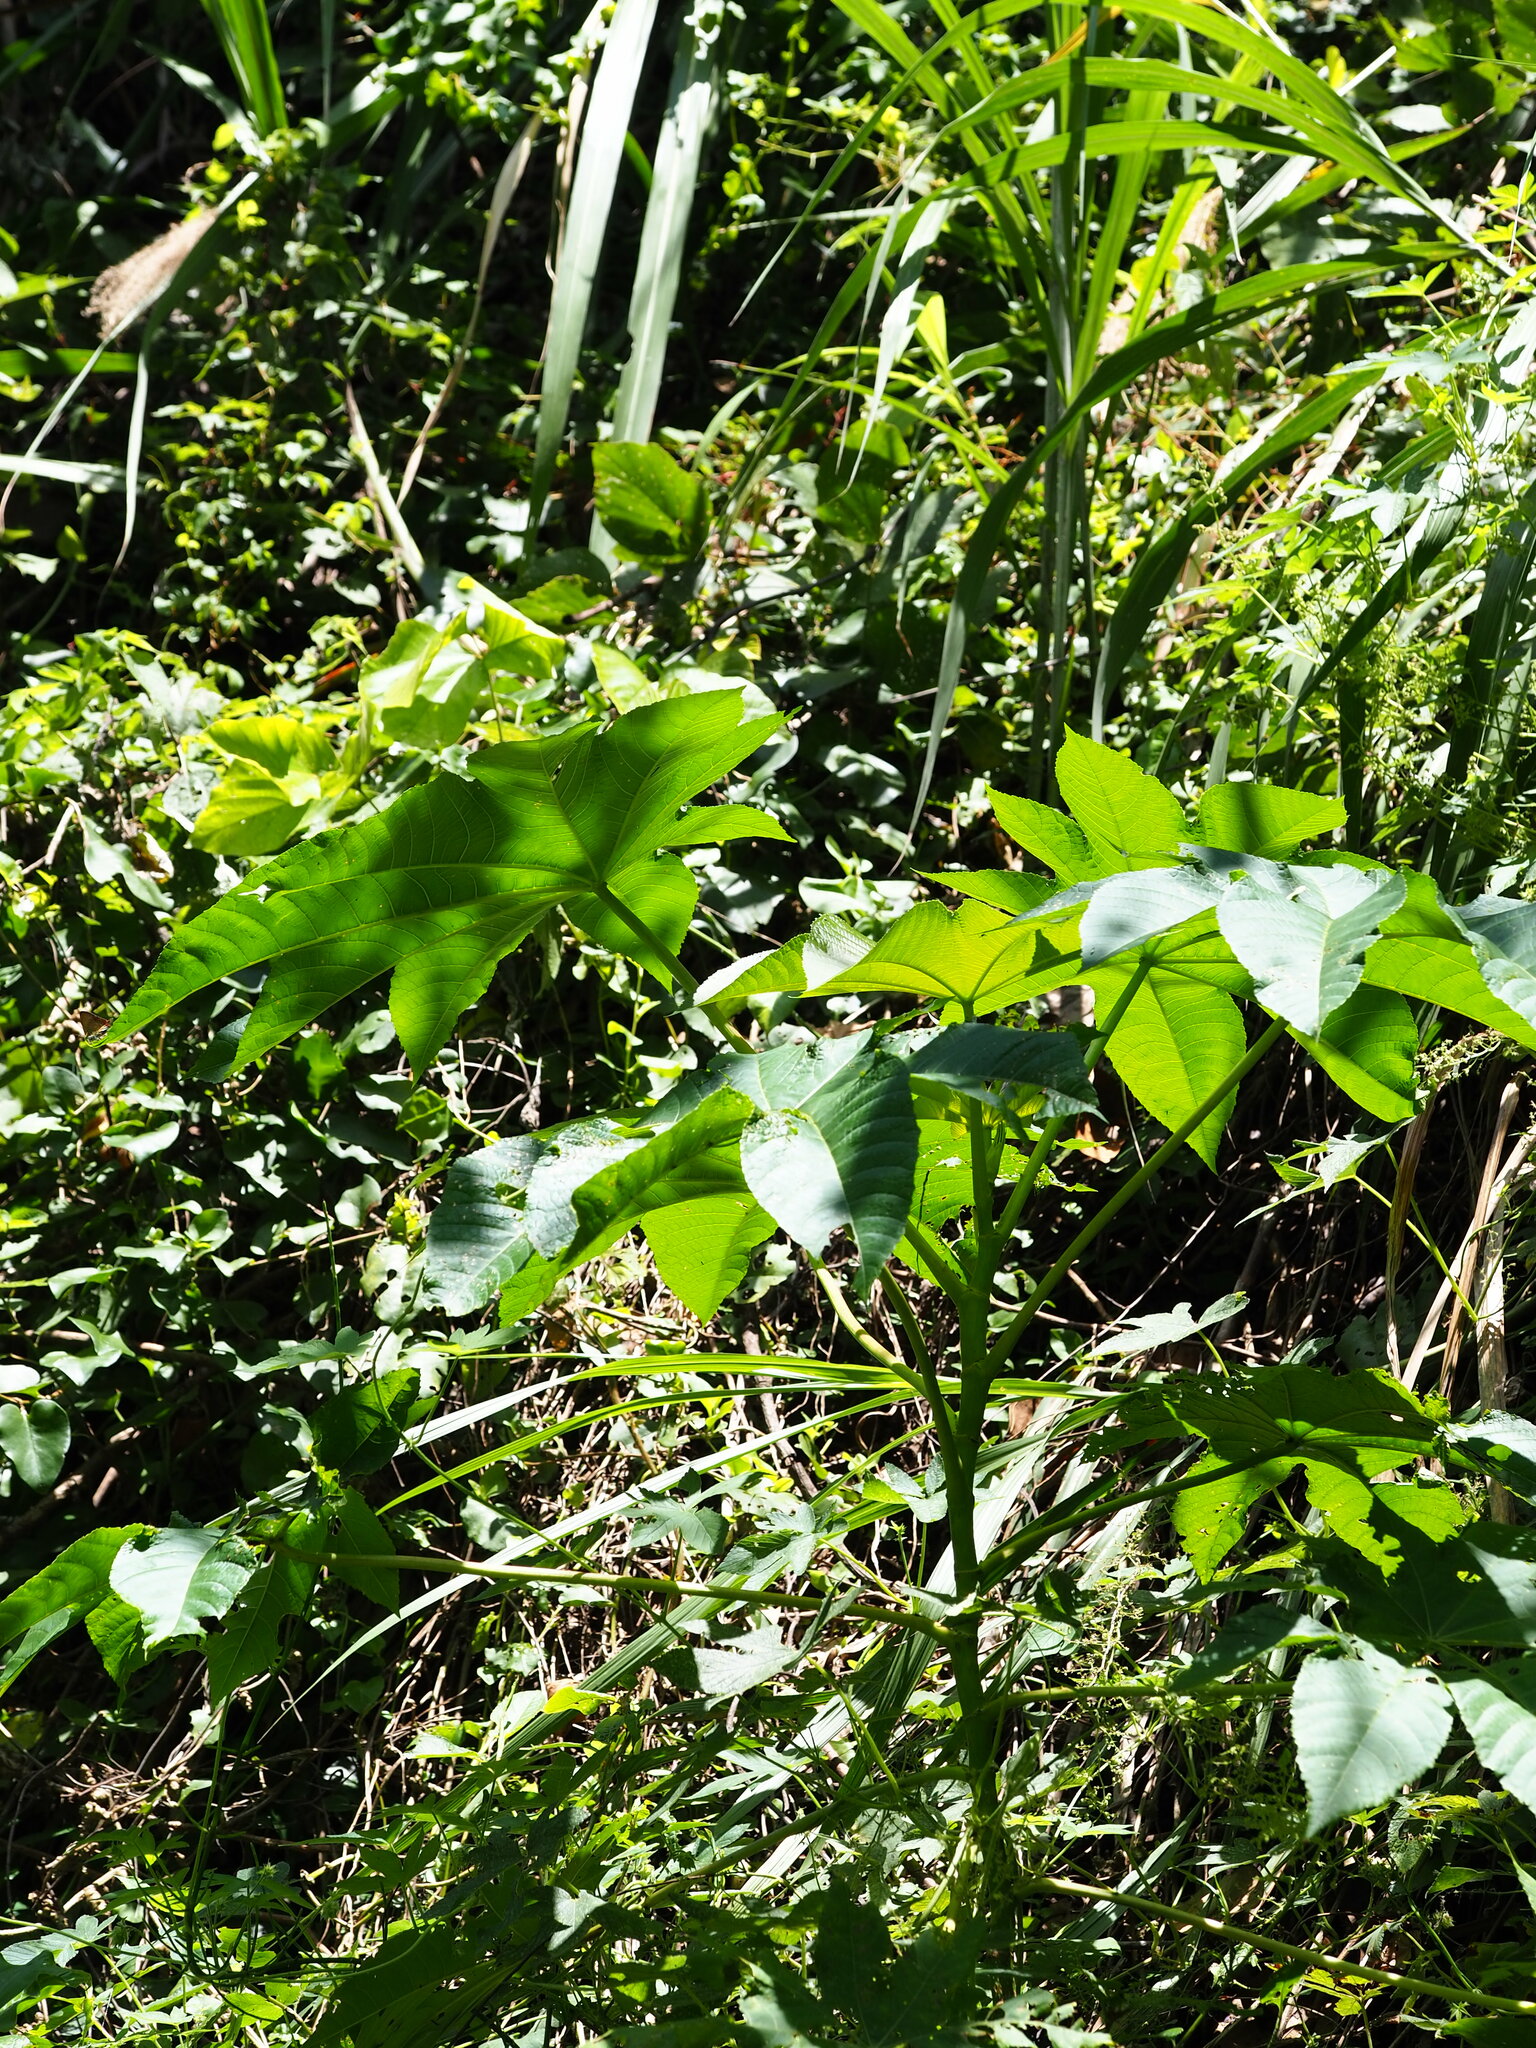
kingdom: Plantae
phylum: Tracheophyta
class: Magnoliopsida
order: Apiales
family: Araliaceae
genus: Tetrapanax
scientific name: Tetrapanax papyrifer
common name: Rice-paper plant
